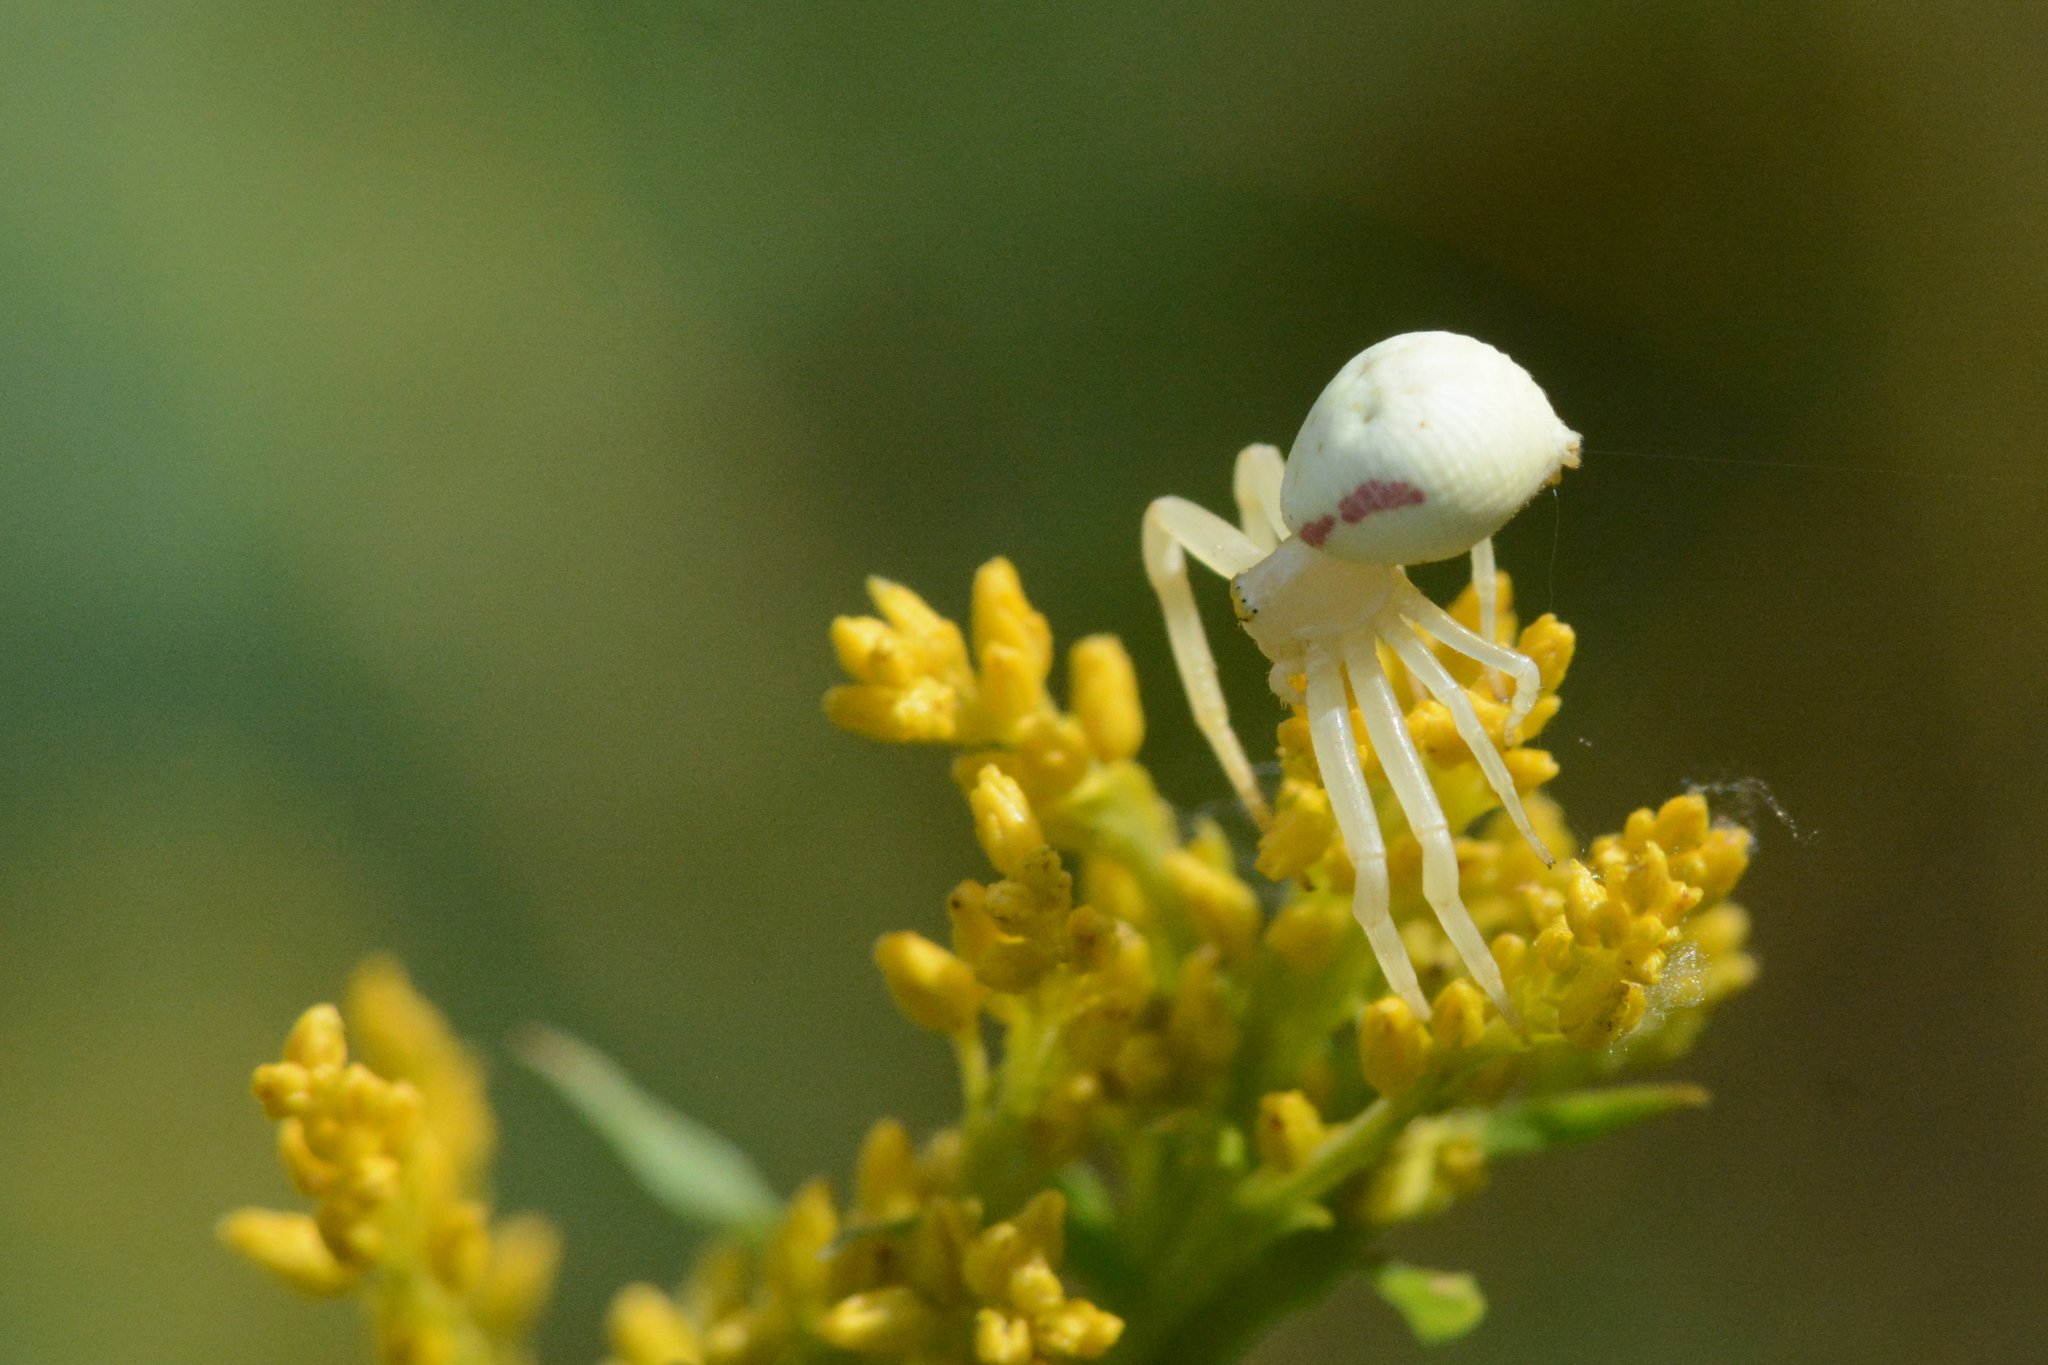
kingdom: Animalia
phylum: Arthropoda
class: Arachnida
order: Araneae
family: Thomisidae
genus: Misumena
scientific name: Misumena vatia
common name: Goldenrod crab spider
